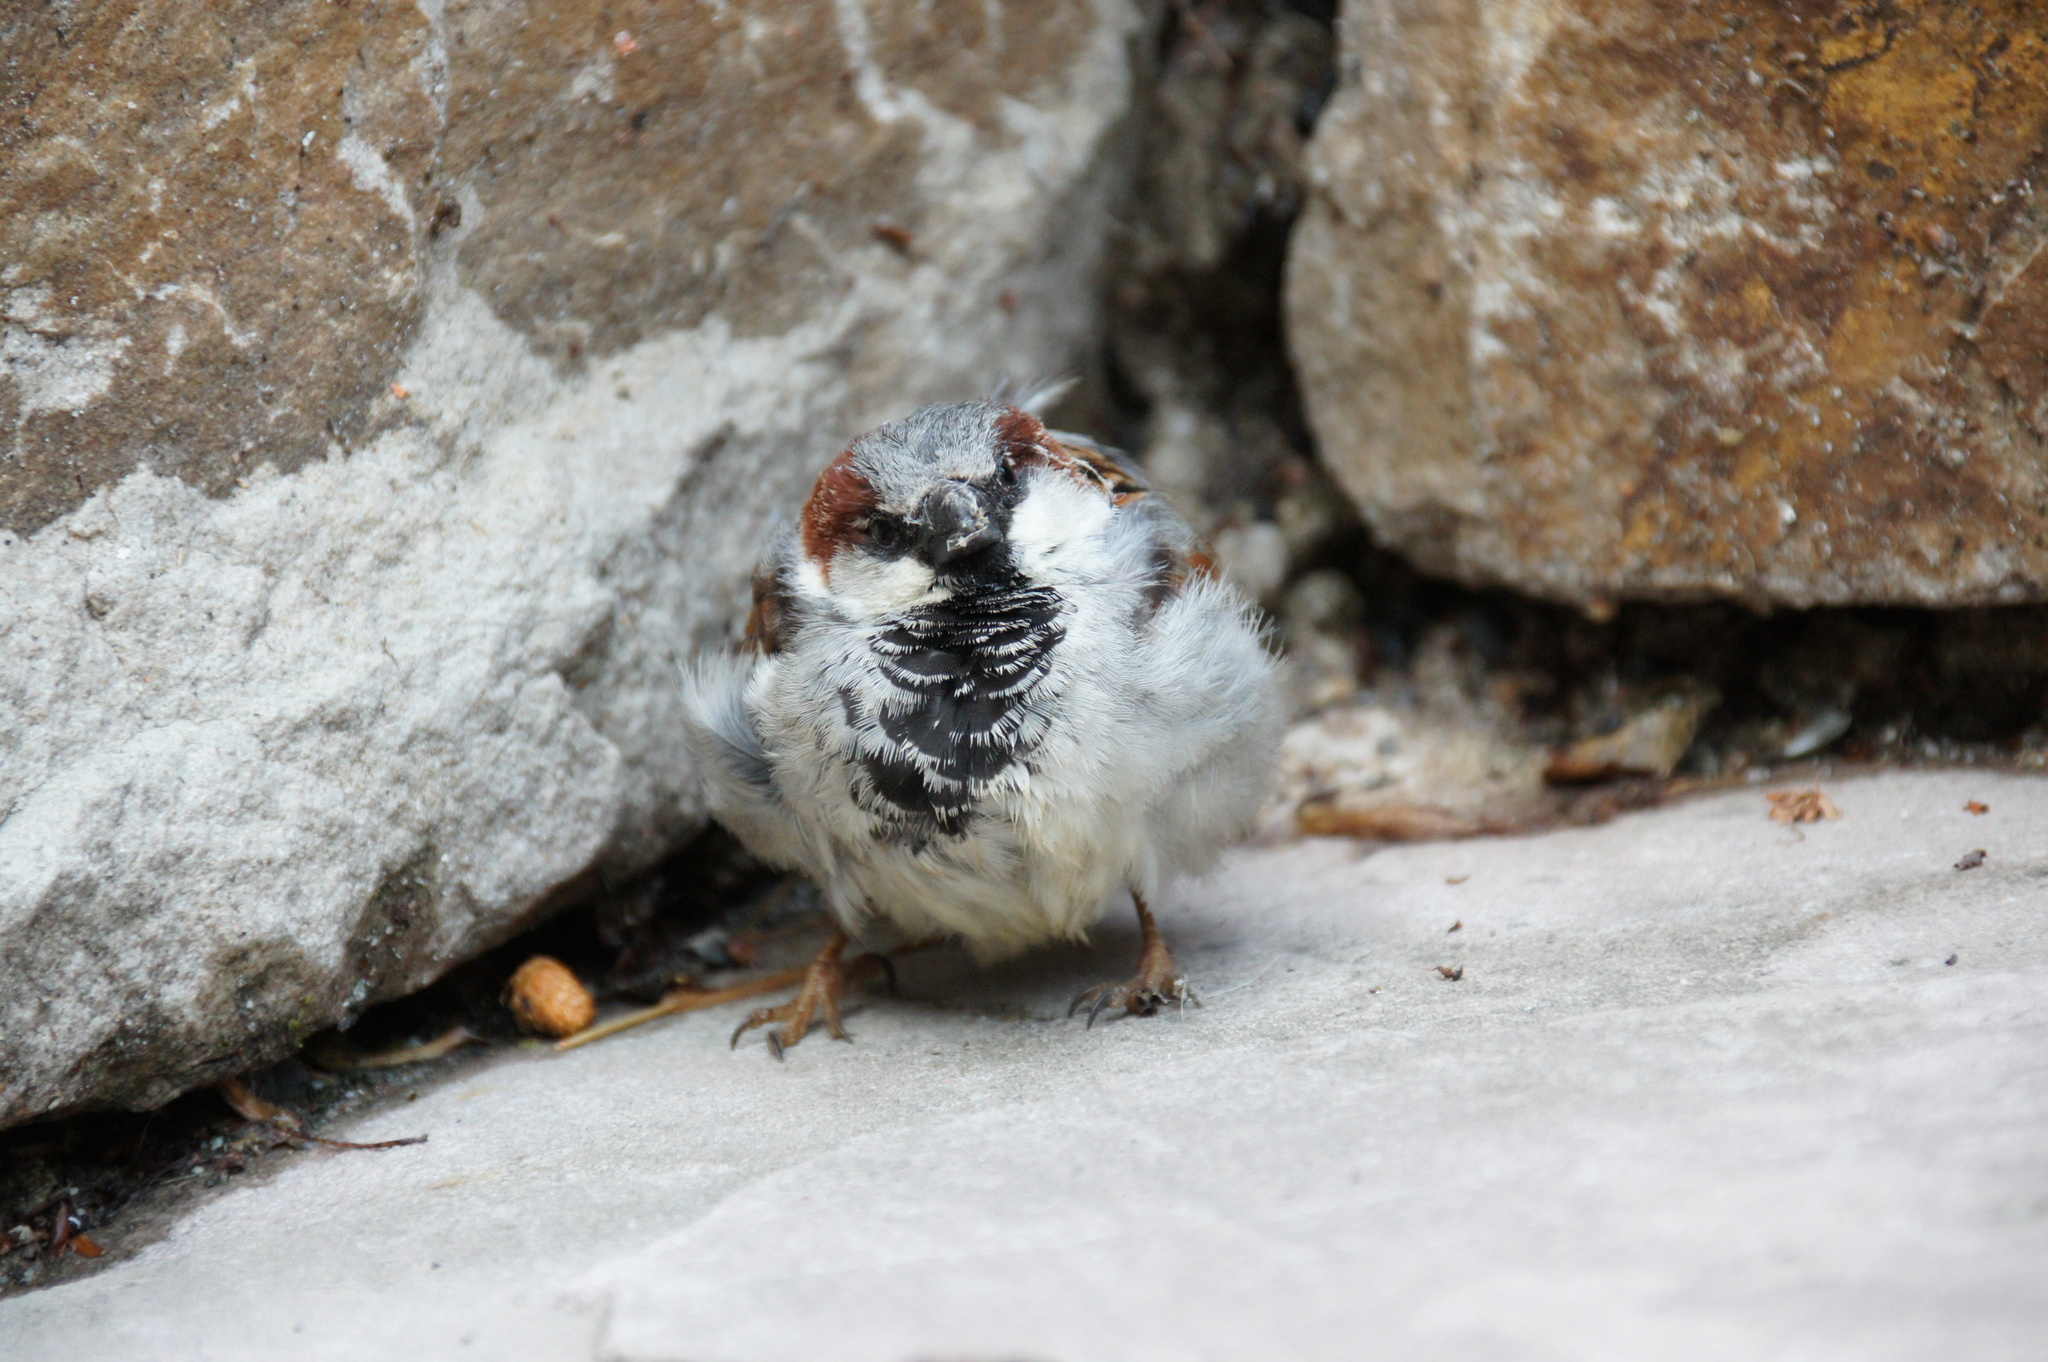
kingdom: Animalia
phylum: Chordata
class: Aves
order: Passeriformes
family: Passeridae
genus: Passer
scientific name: Passer domesticus
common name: House sparrow
